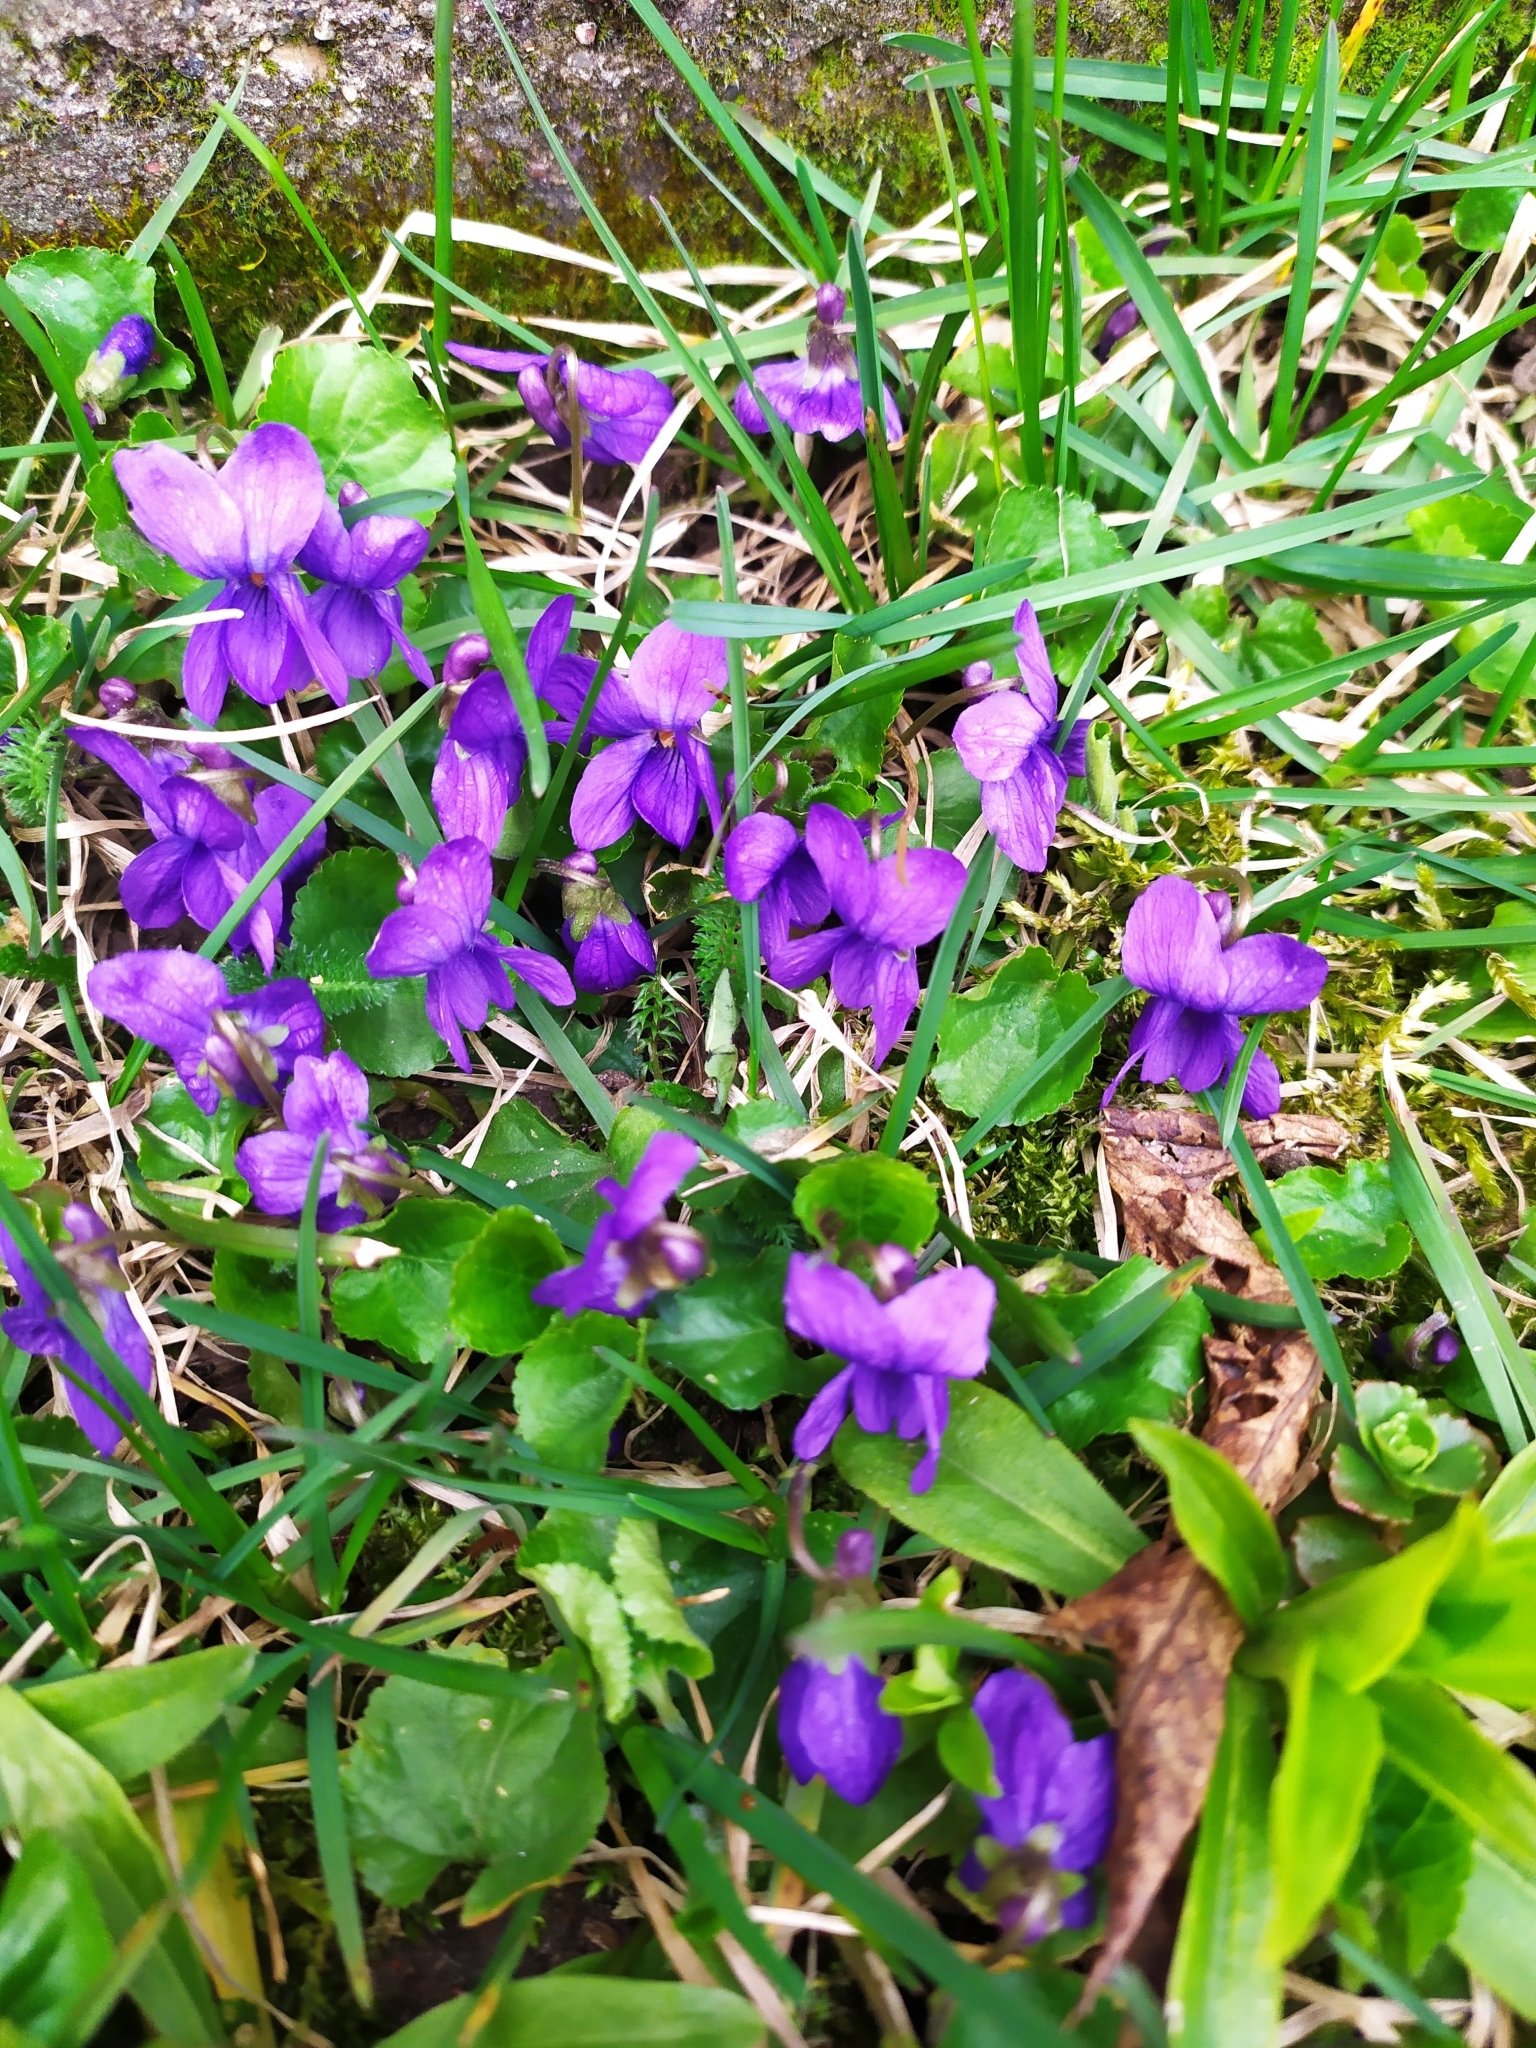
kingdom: Plantae
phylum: Tracheophyta
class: Magnoliopsida
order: Malpighiales
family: Violaceae
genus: Viola
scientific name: Viola odorata
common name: Sweet violet
